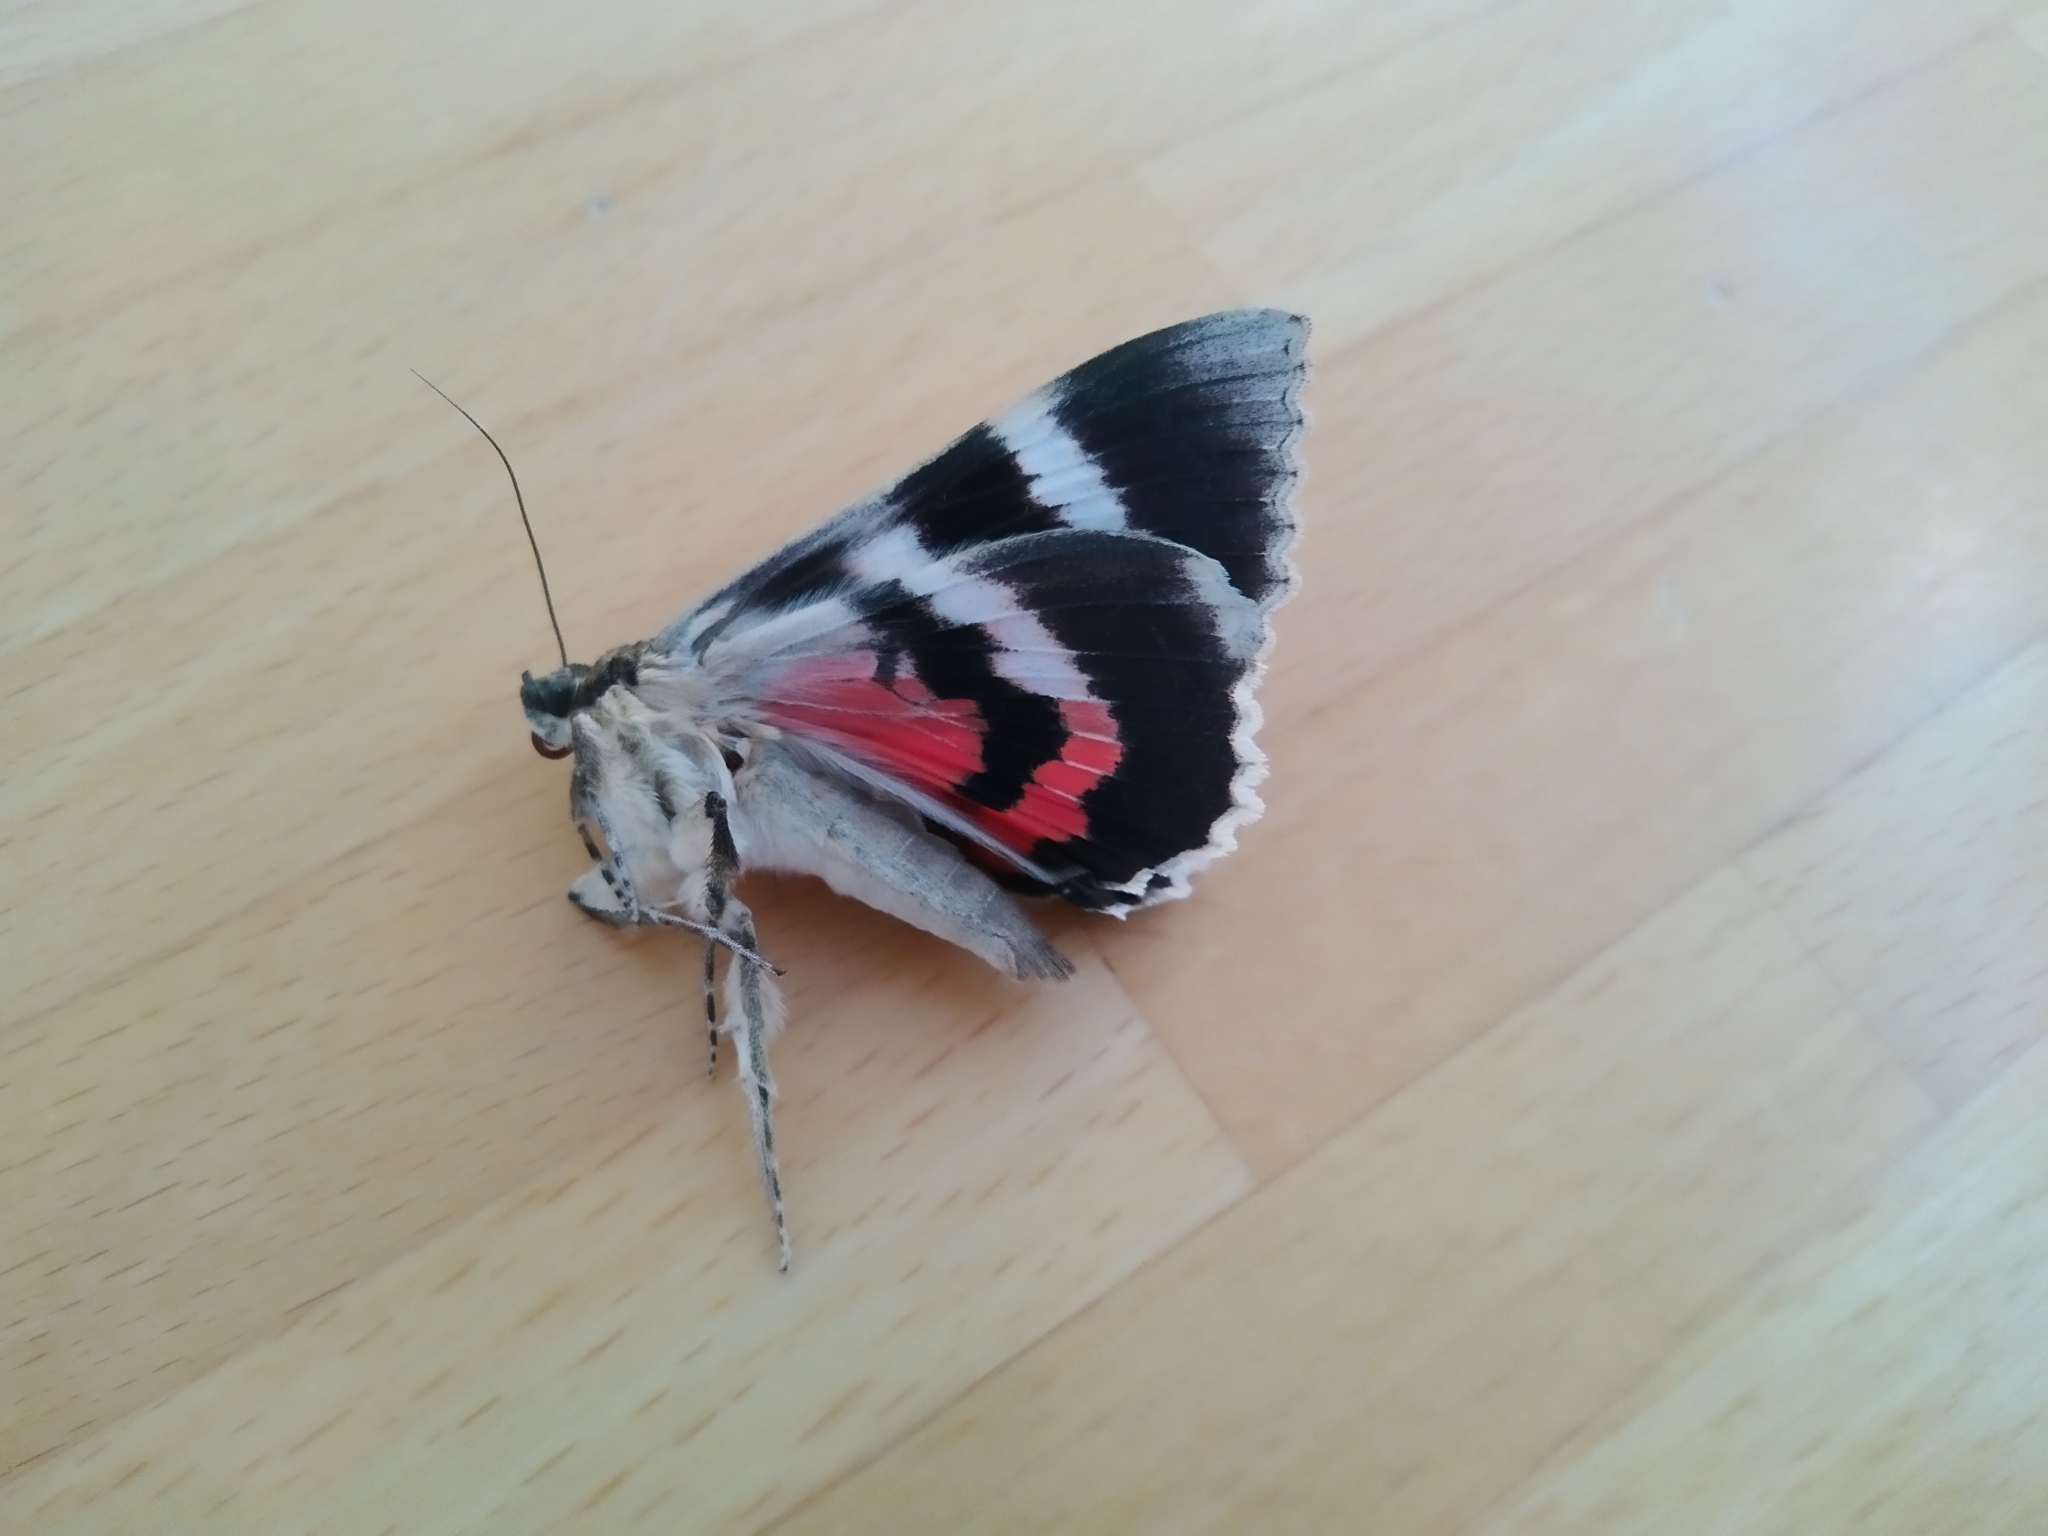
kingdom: Animalia
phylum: Arthropoda
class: Insecta
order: Lepidoptera
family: Erebidae
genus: Catocala
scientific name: Catocala nupta
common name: Red underwing
